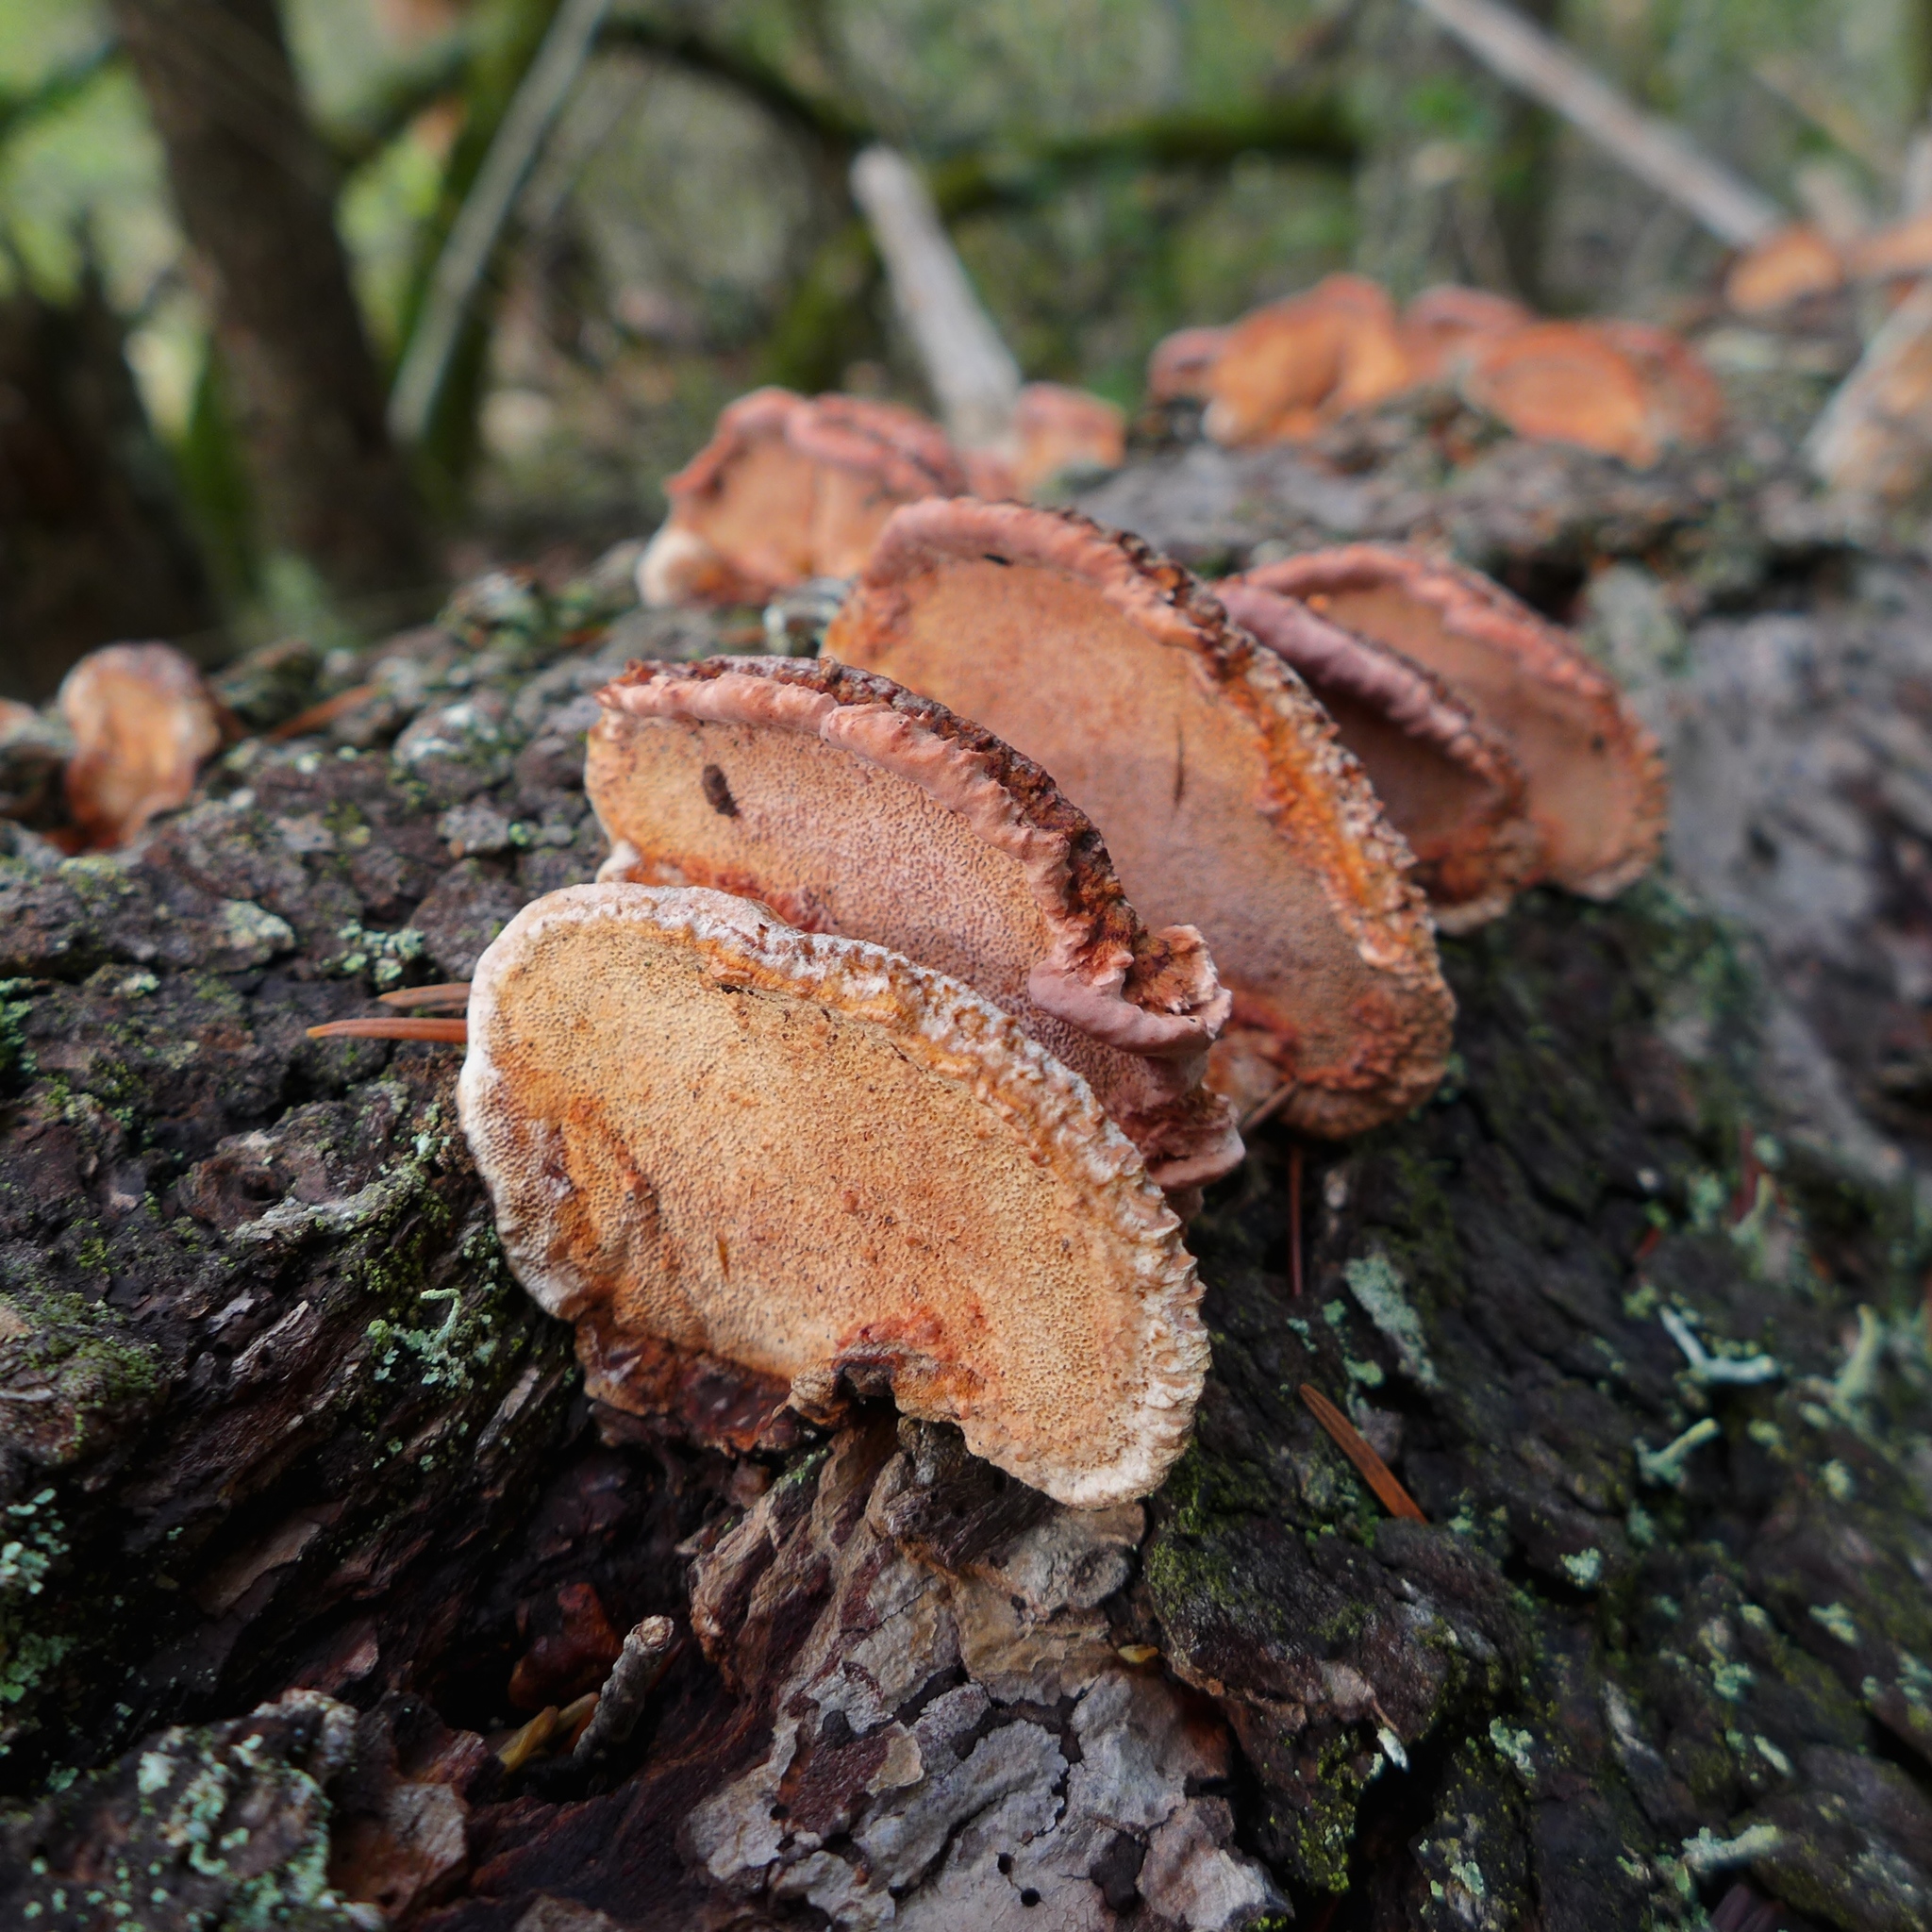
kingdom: Fungi
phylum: Basidiomycota
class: Agaricomycetes
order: Polyporales
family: Fomitopsidaceae
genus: Rhodofomes
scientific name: Rhodofomes cajanderi
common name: Rosy conk
